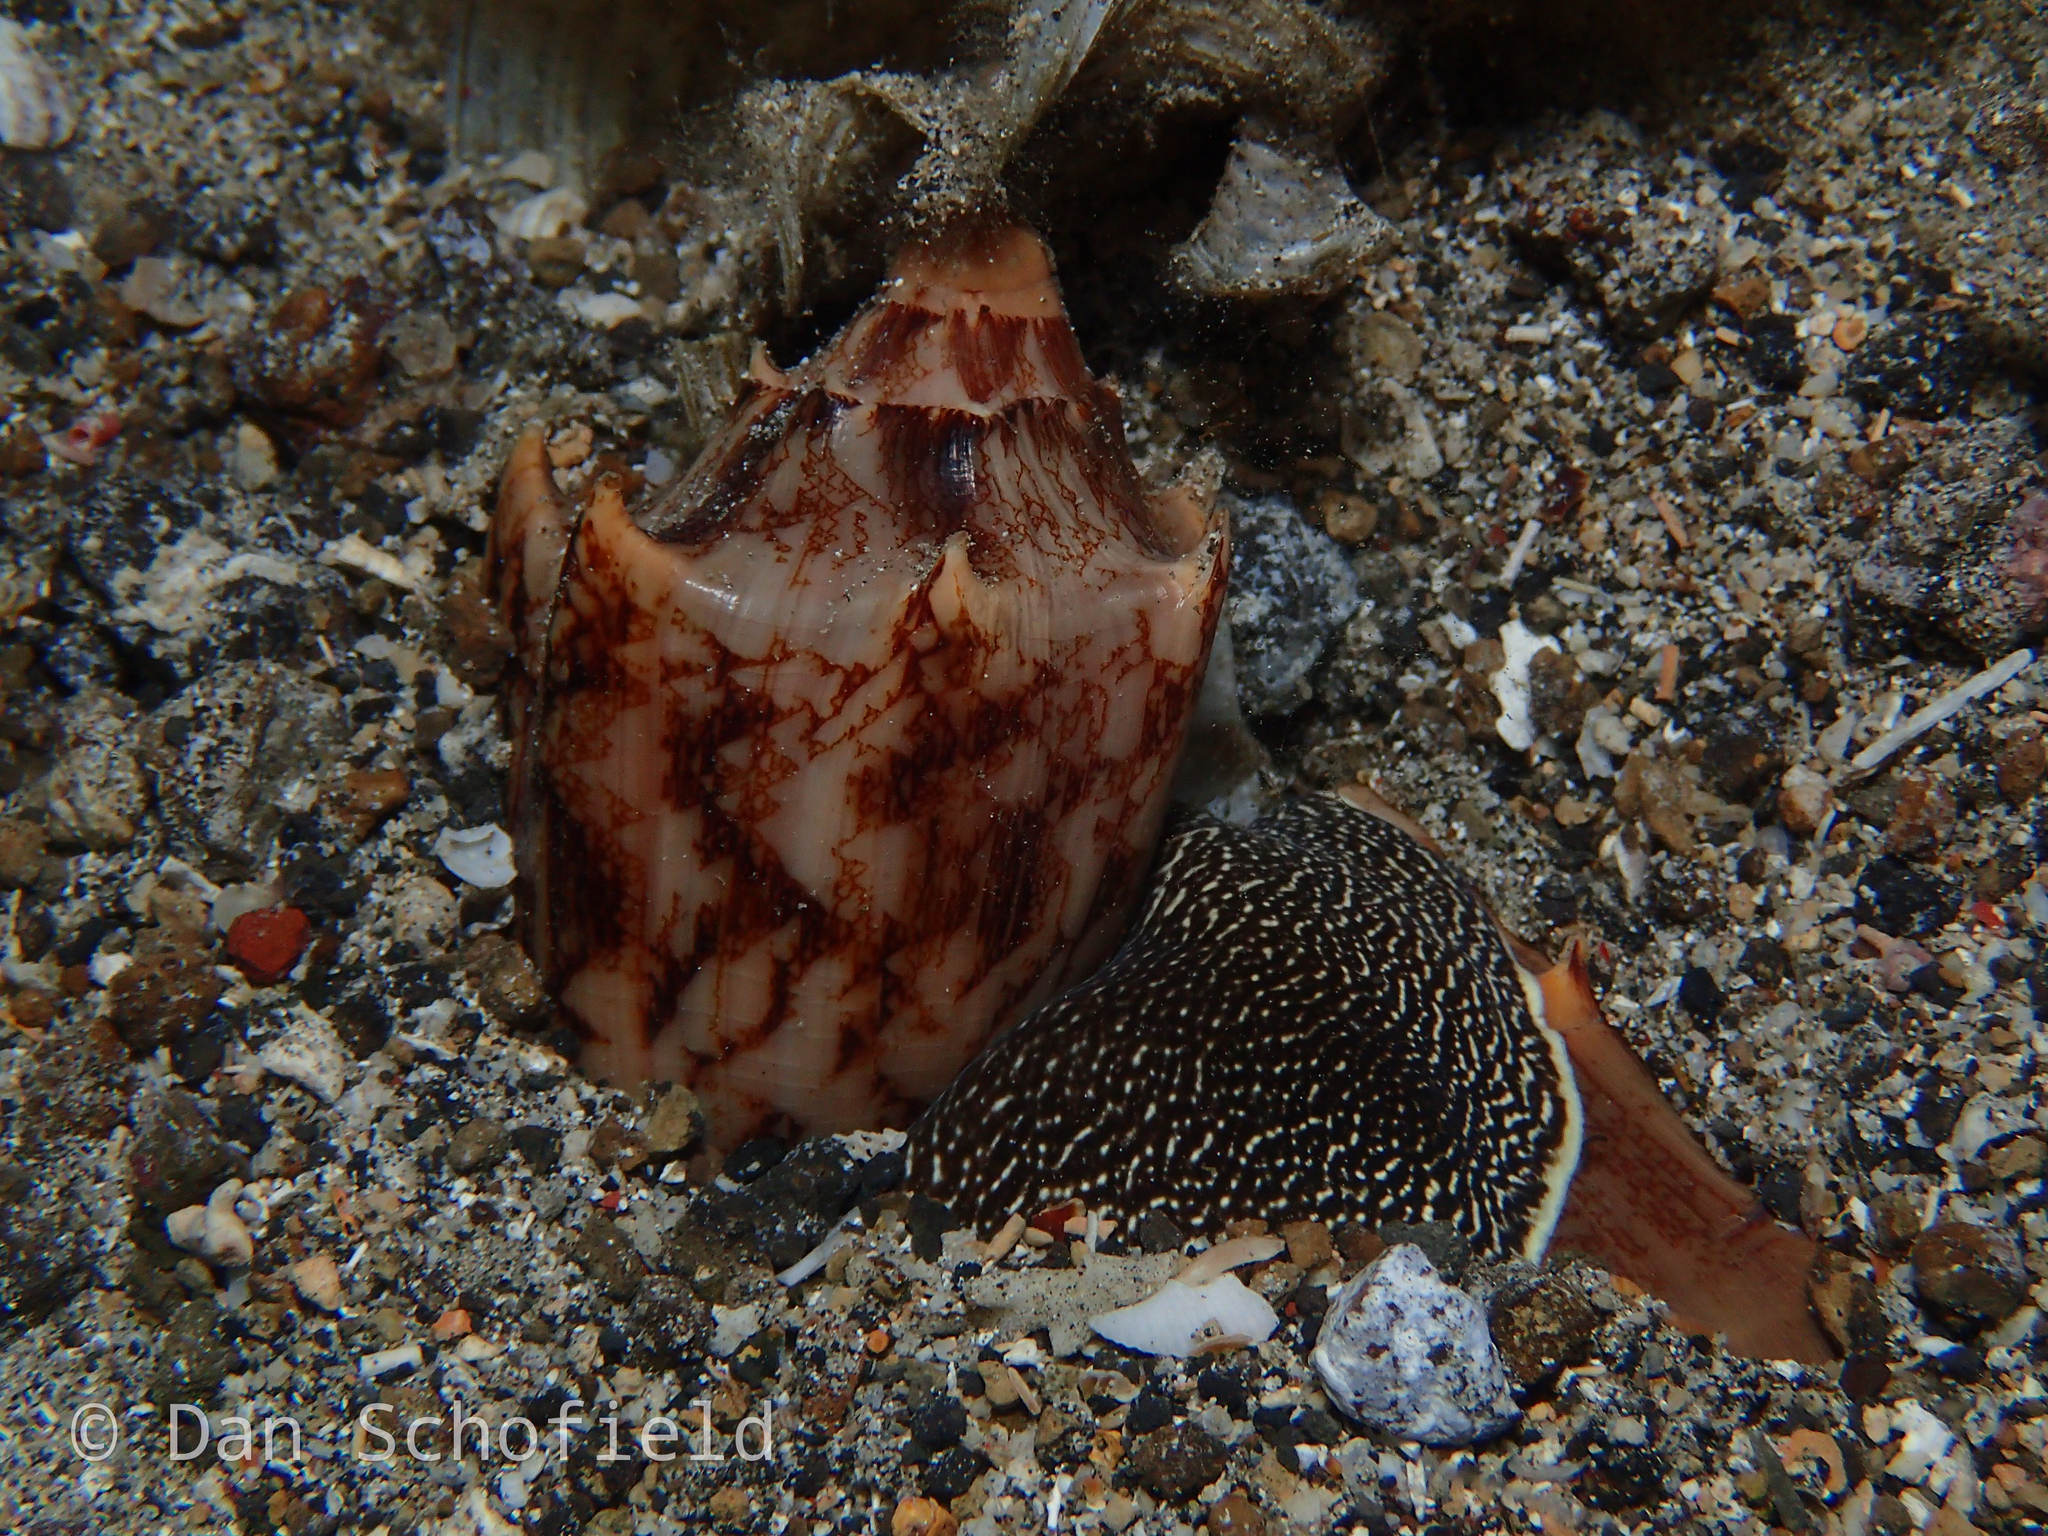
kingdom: Animalia
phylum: Mollusca
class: Gastropoda
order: Neogastropoda
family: Volutidae
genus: Cymbiola
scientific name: Cymbiola vespertilio
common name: Bat volute
